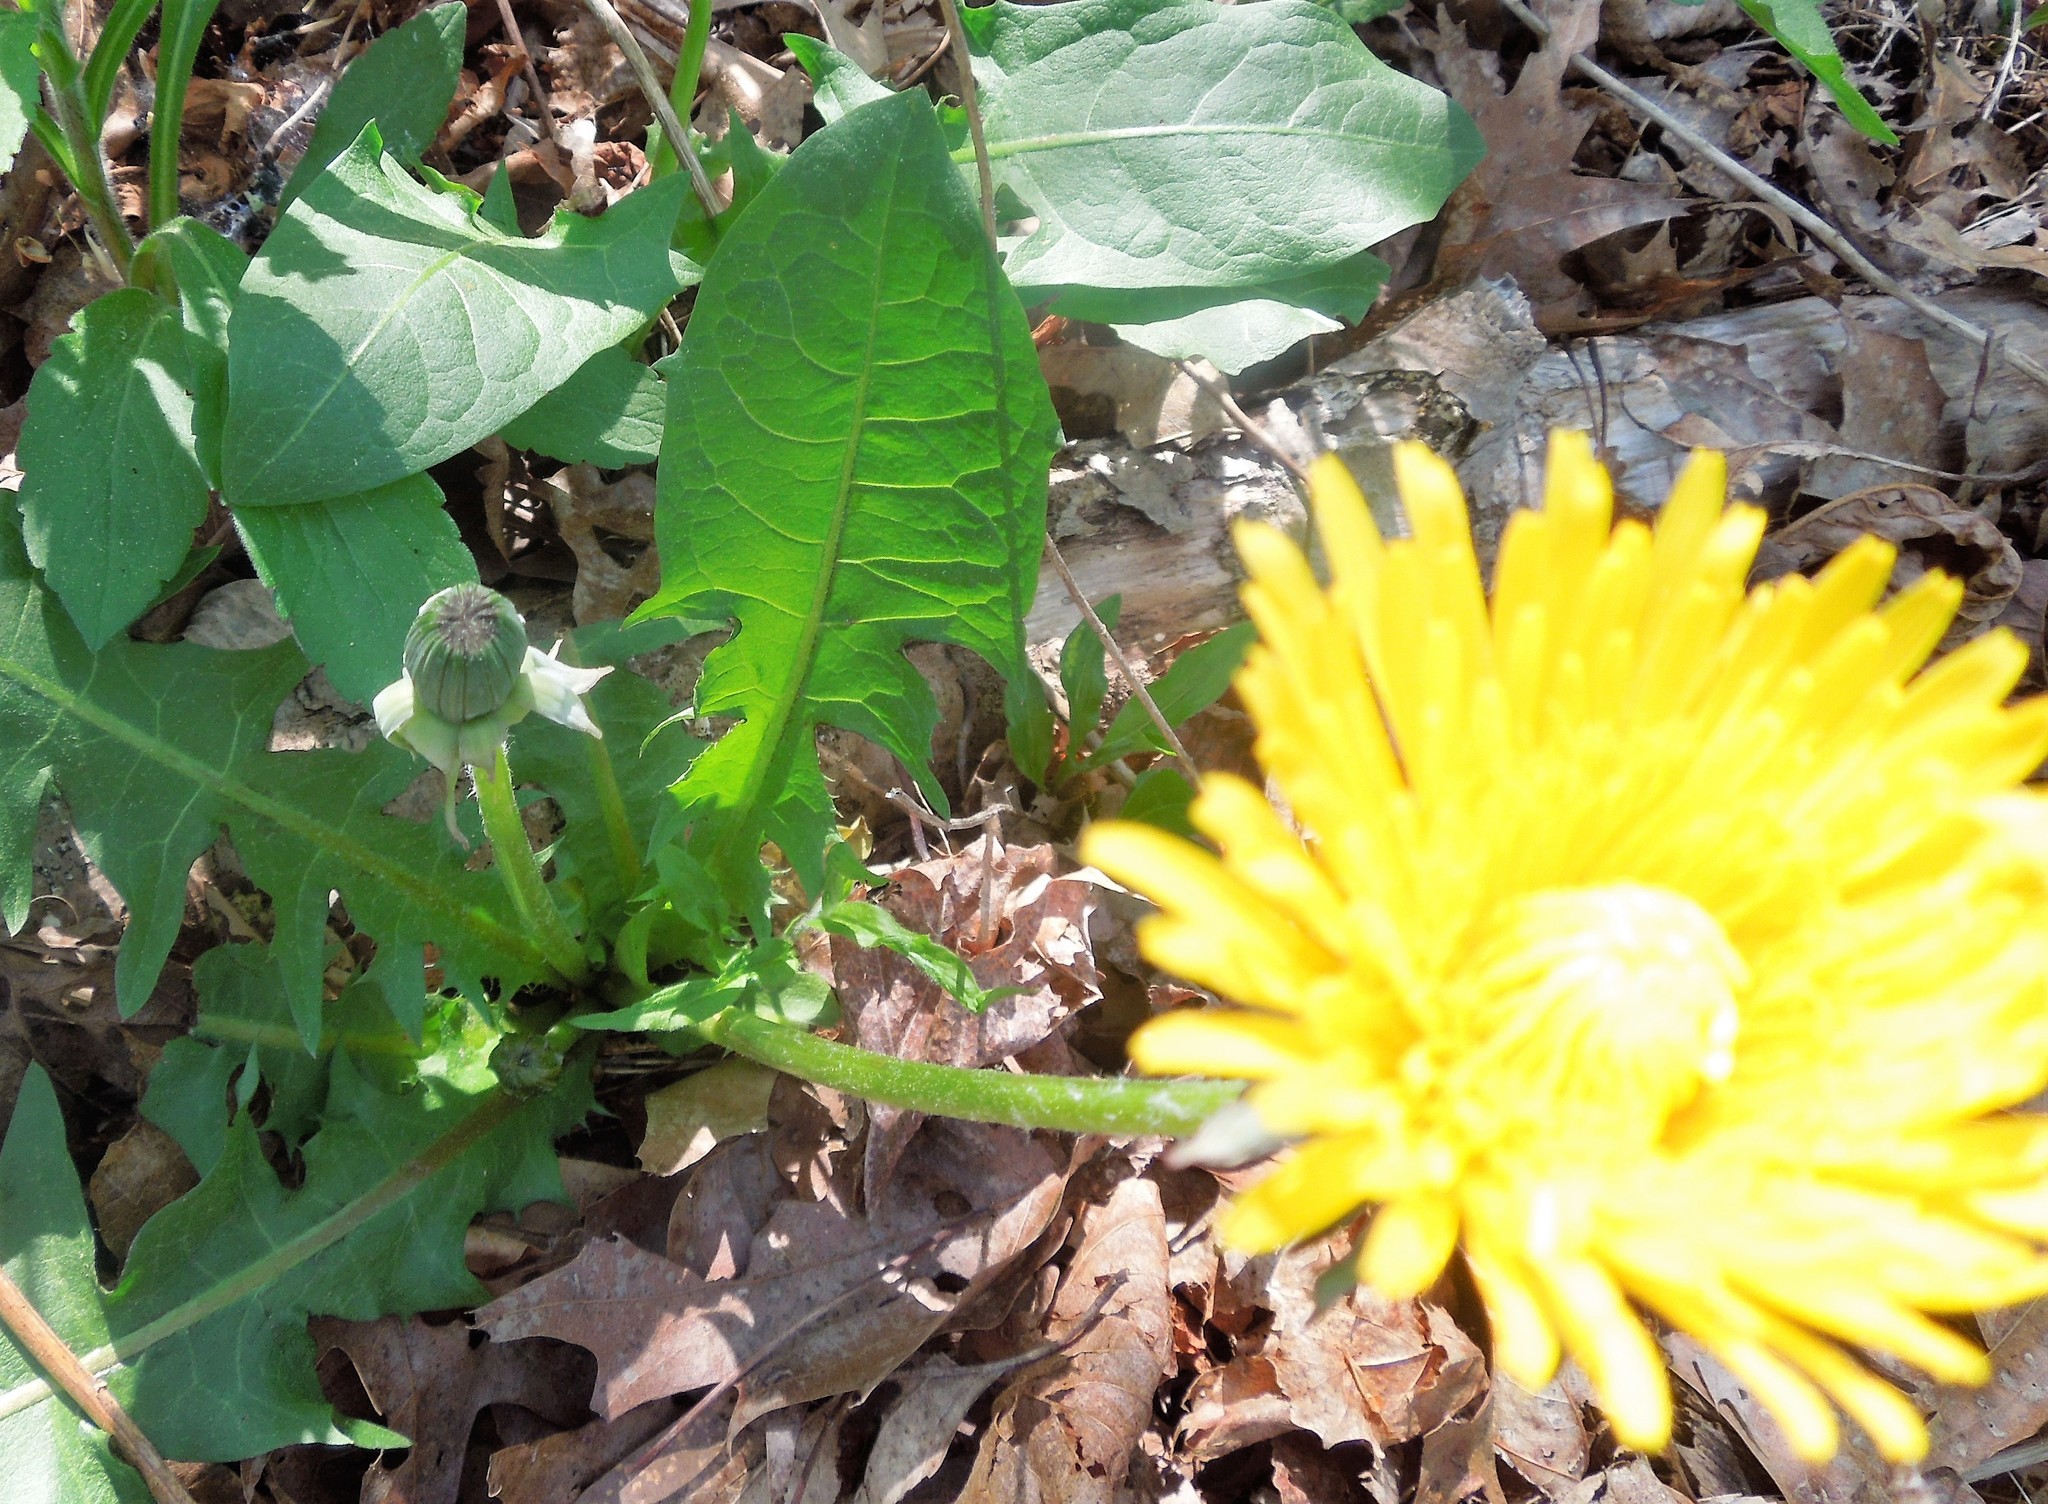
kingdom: Plantae
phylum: Tracheophyta
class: Magnoliopsida
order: Asterales
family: Asteraceae
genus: Taraxacum
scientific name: Taraxacum
